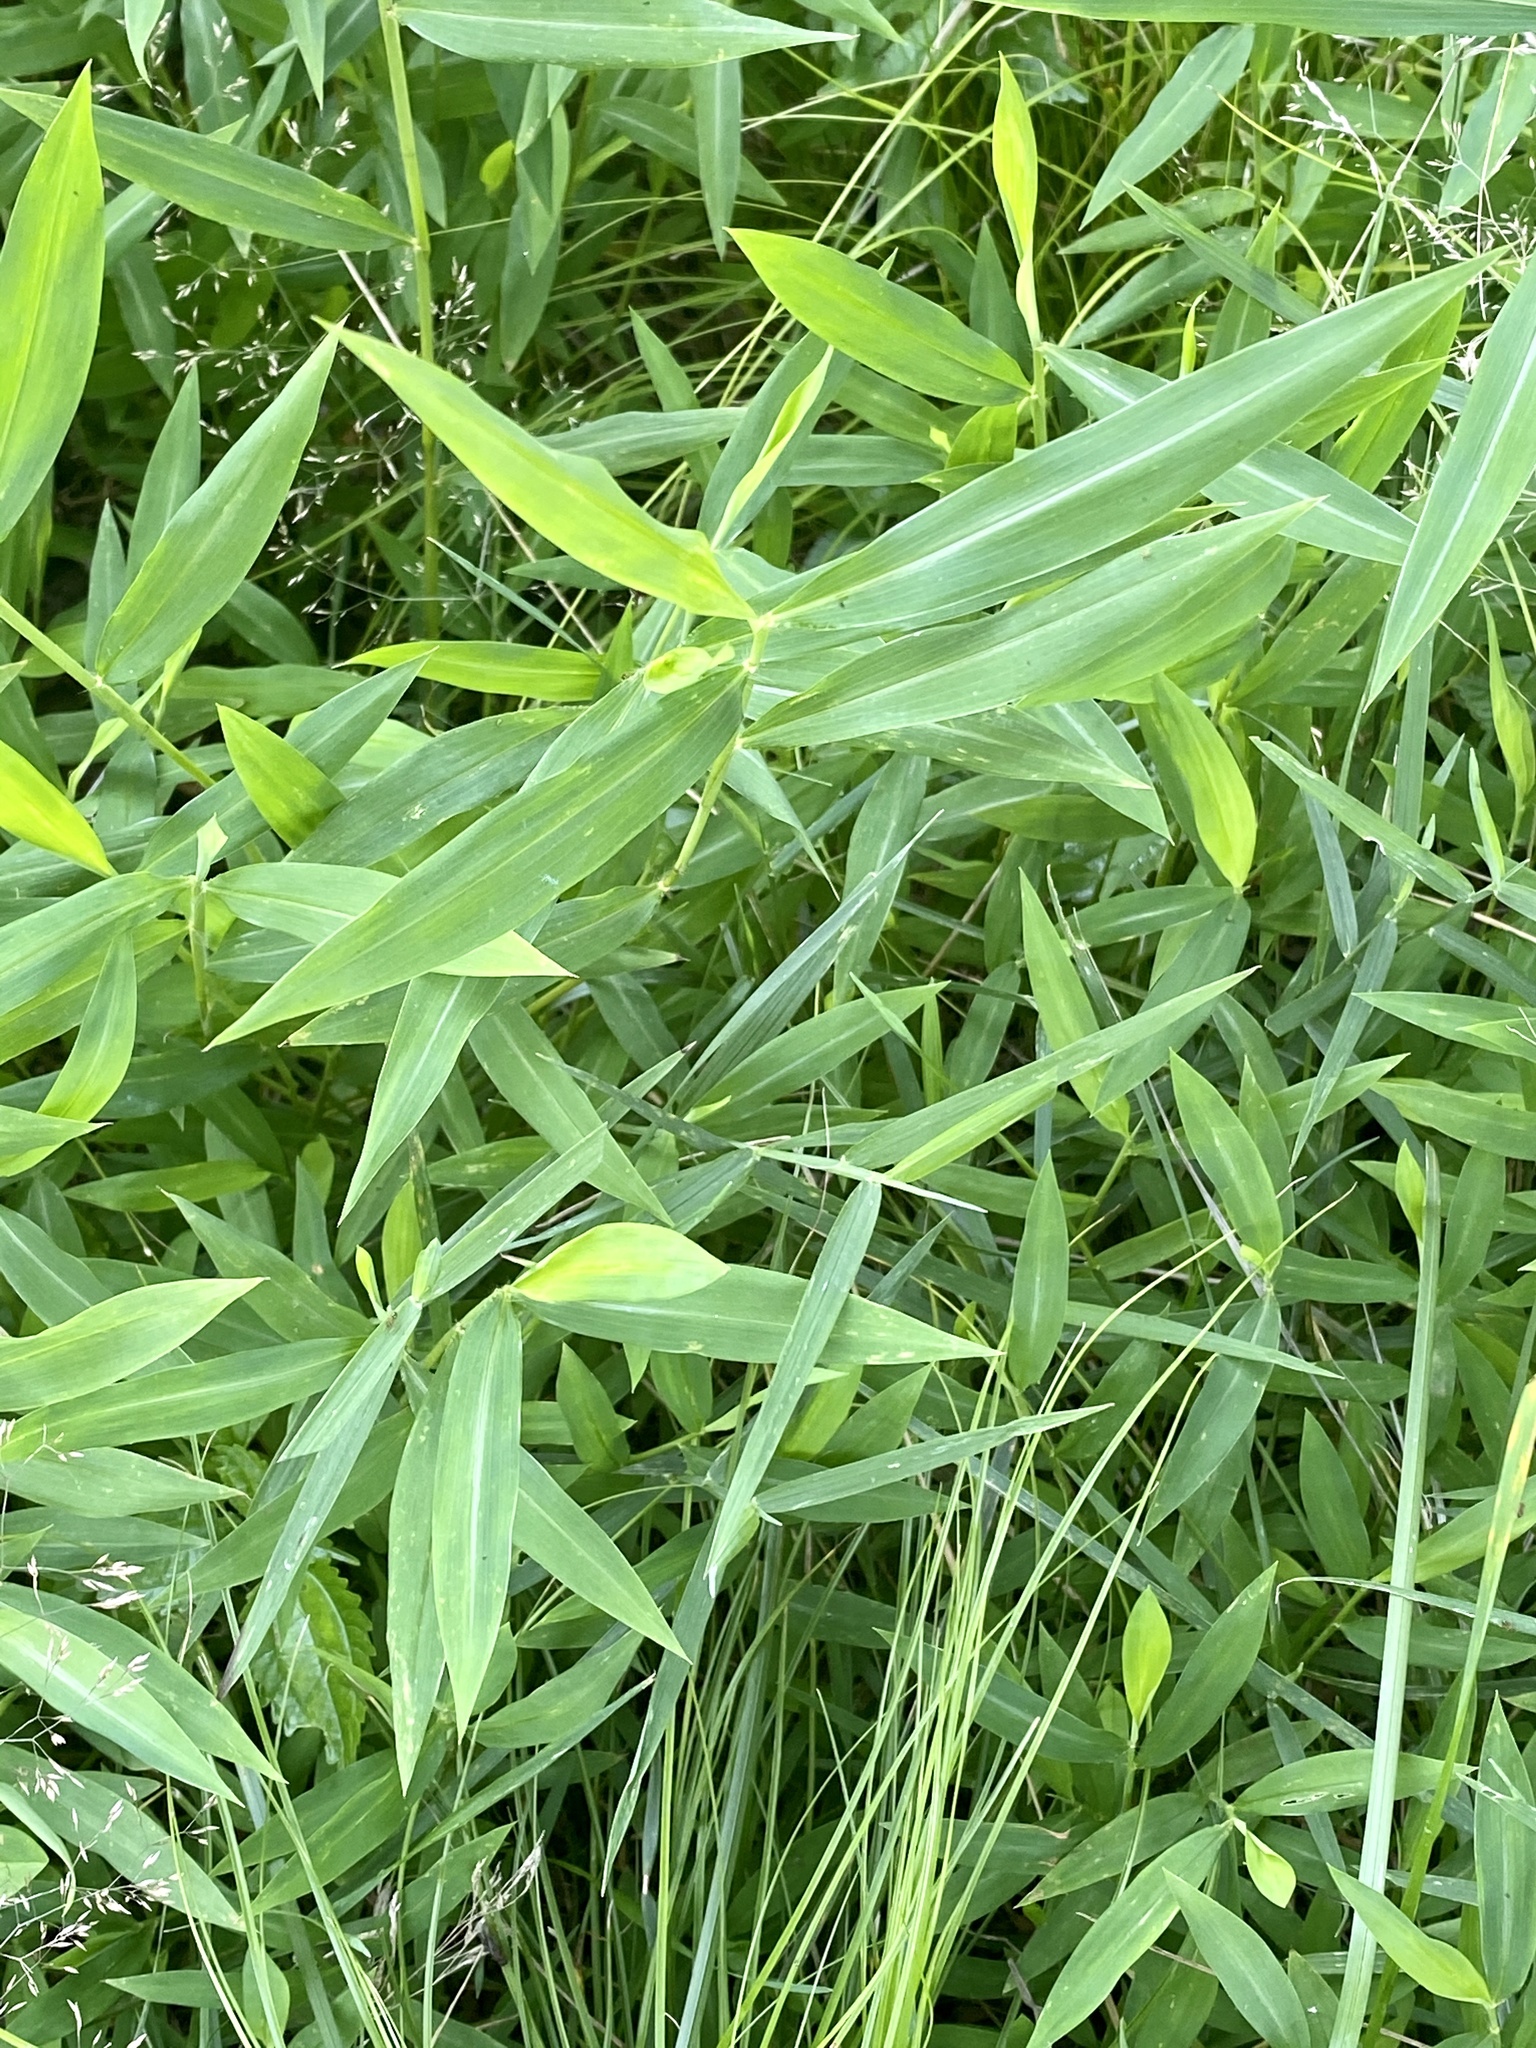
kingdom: Plantae
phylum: Tracheophyta
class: Liliopsida
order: Poales
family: Poaceae
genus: Microstegium
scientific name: Microstegium vimineum
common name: Japanese stiltgrass
